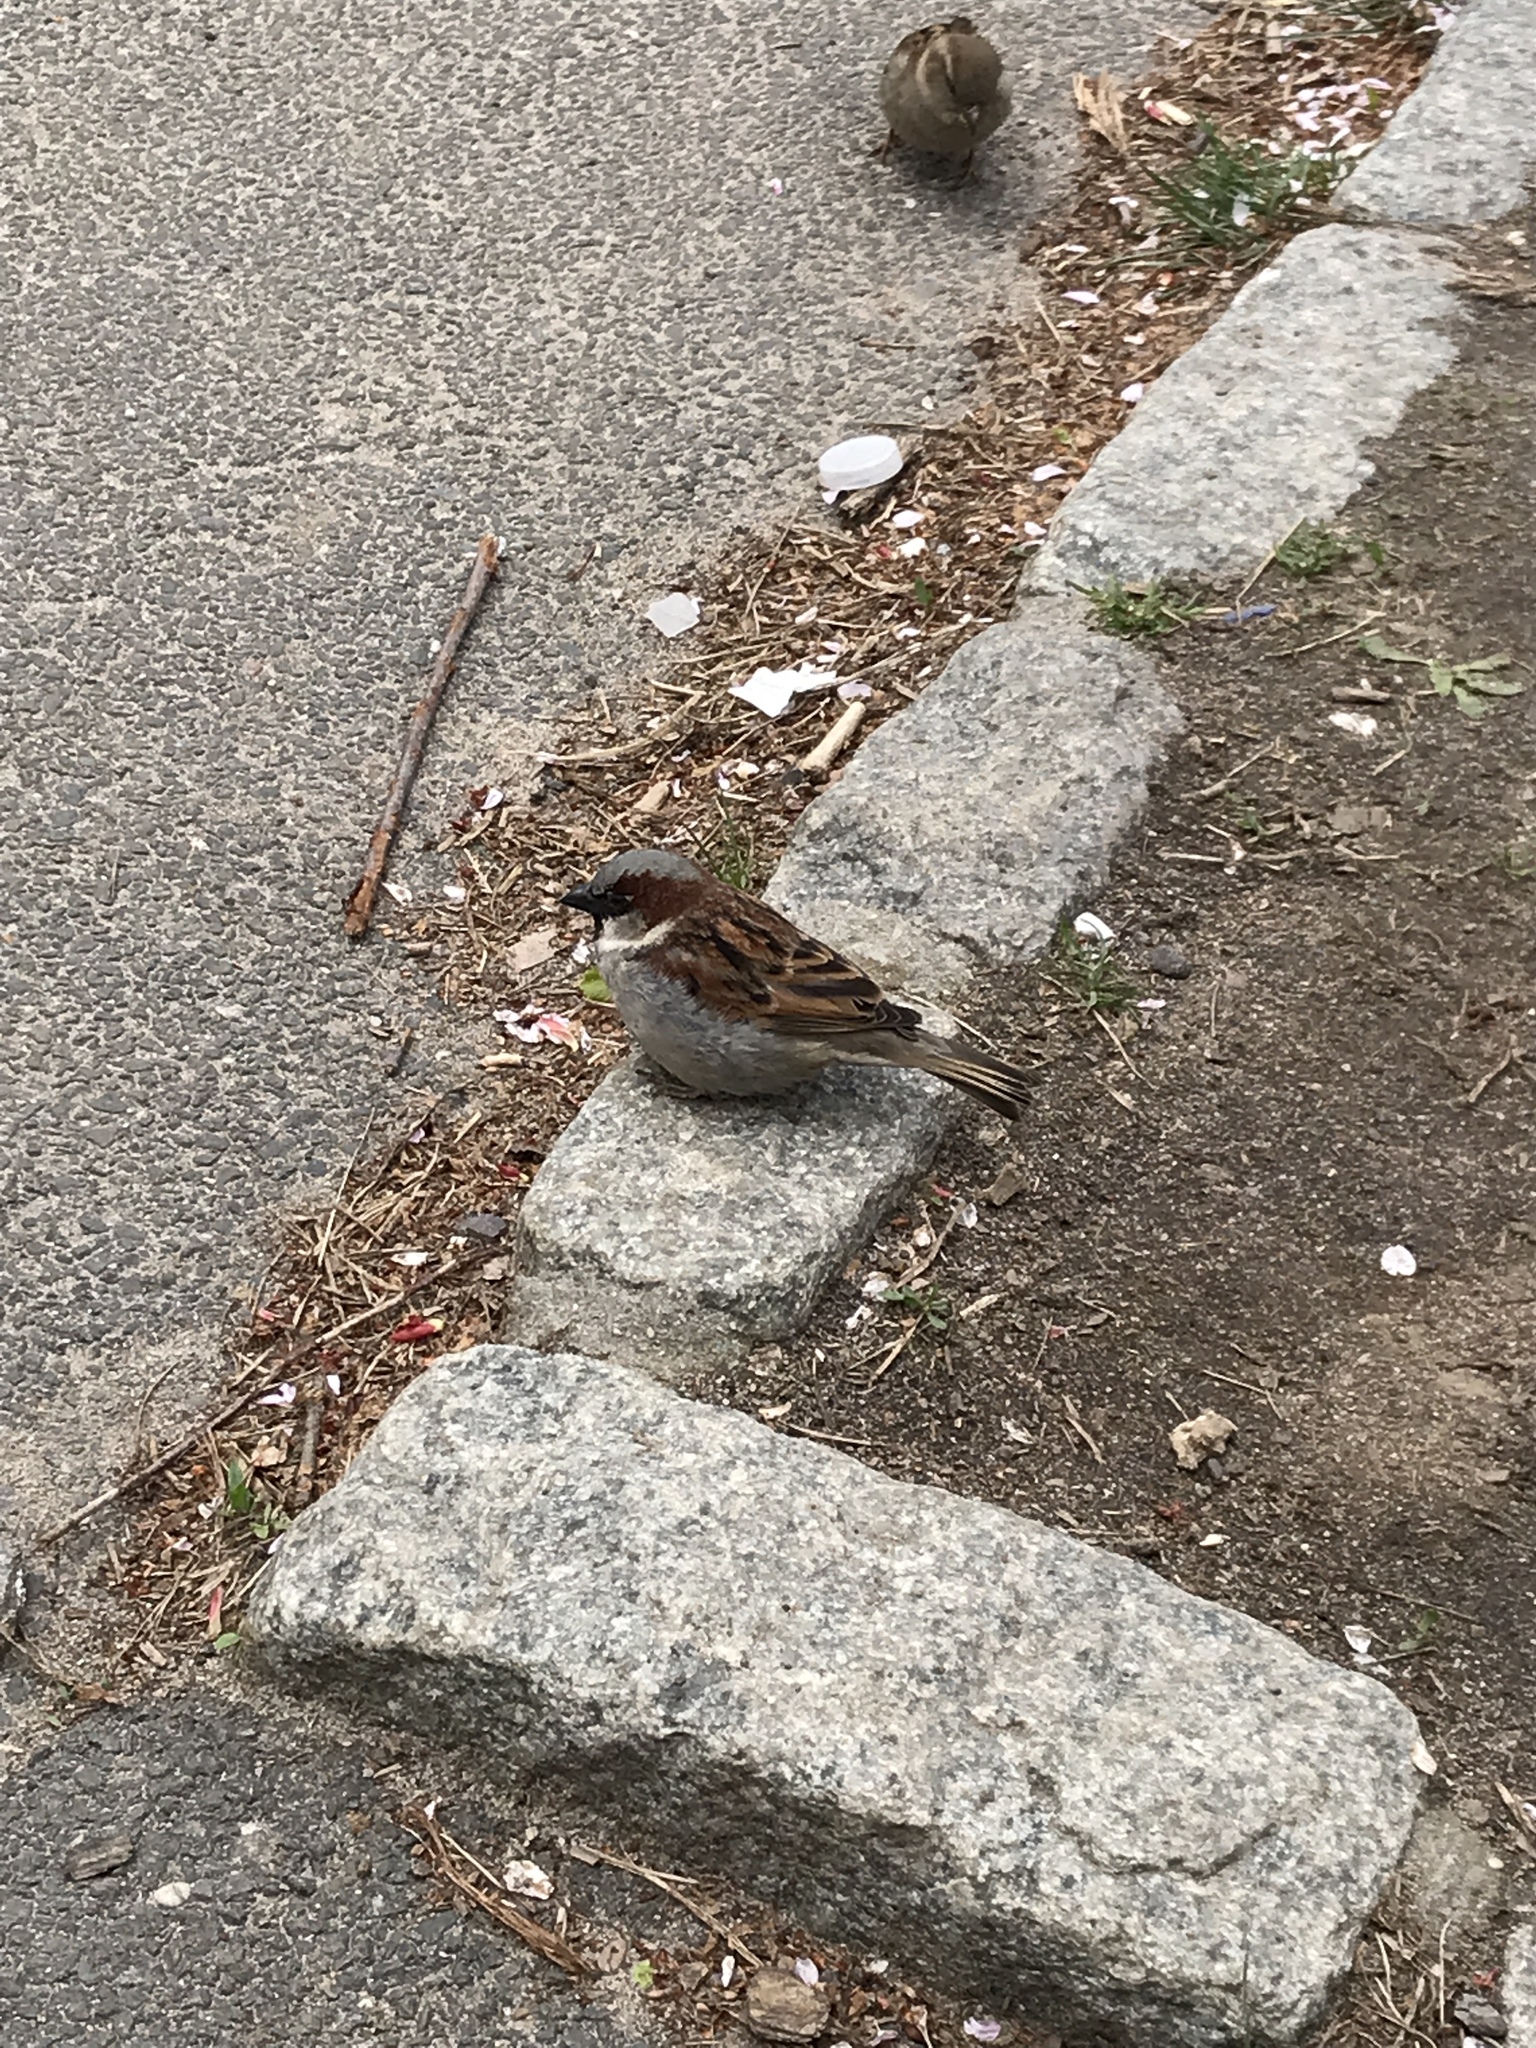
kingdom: Animalia
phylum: Chordata
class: Aves
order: Passeriformes
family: Passeridae
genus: Passer
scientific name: Passer domesticus
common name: House sparrow
